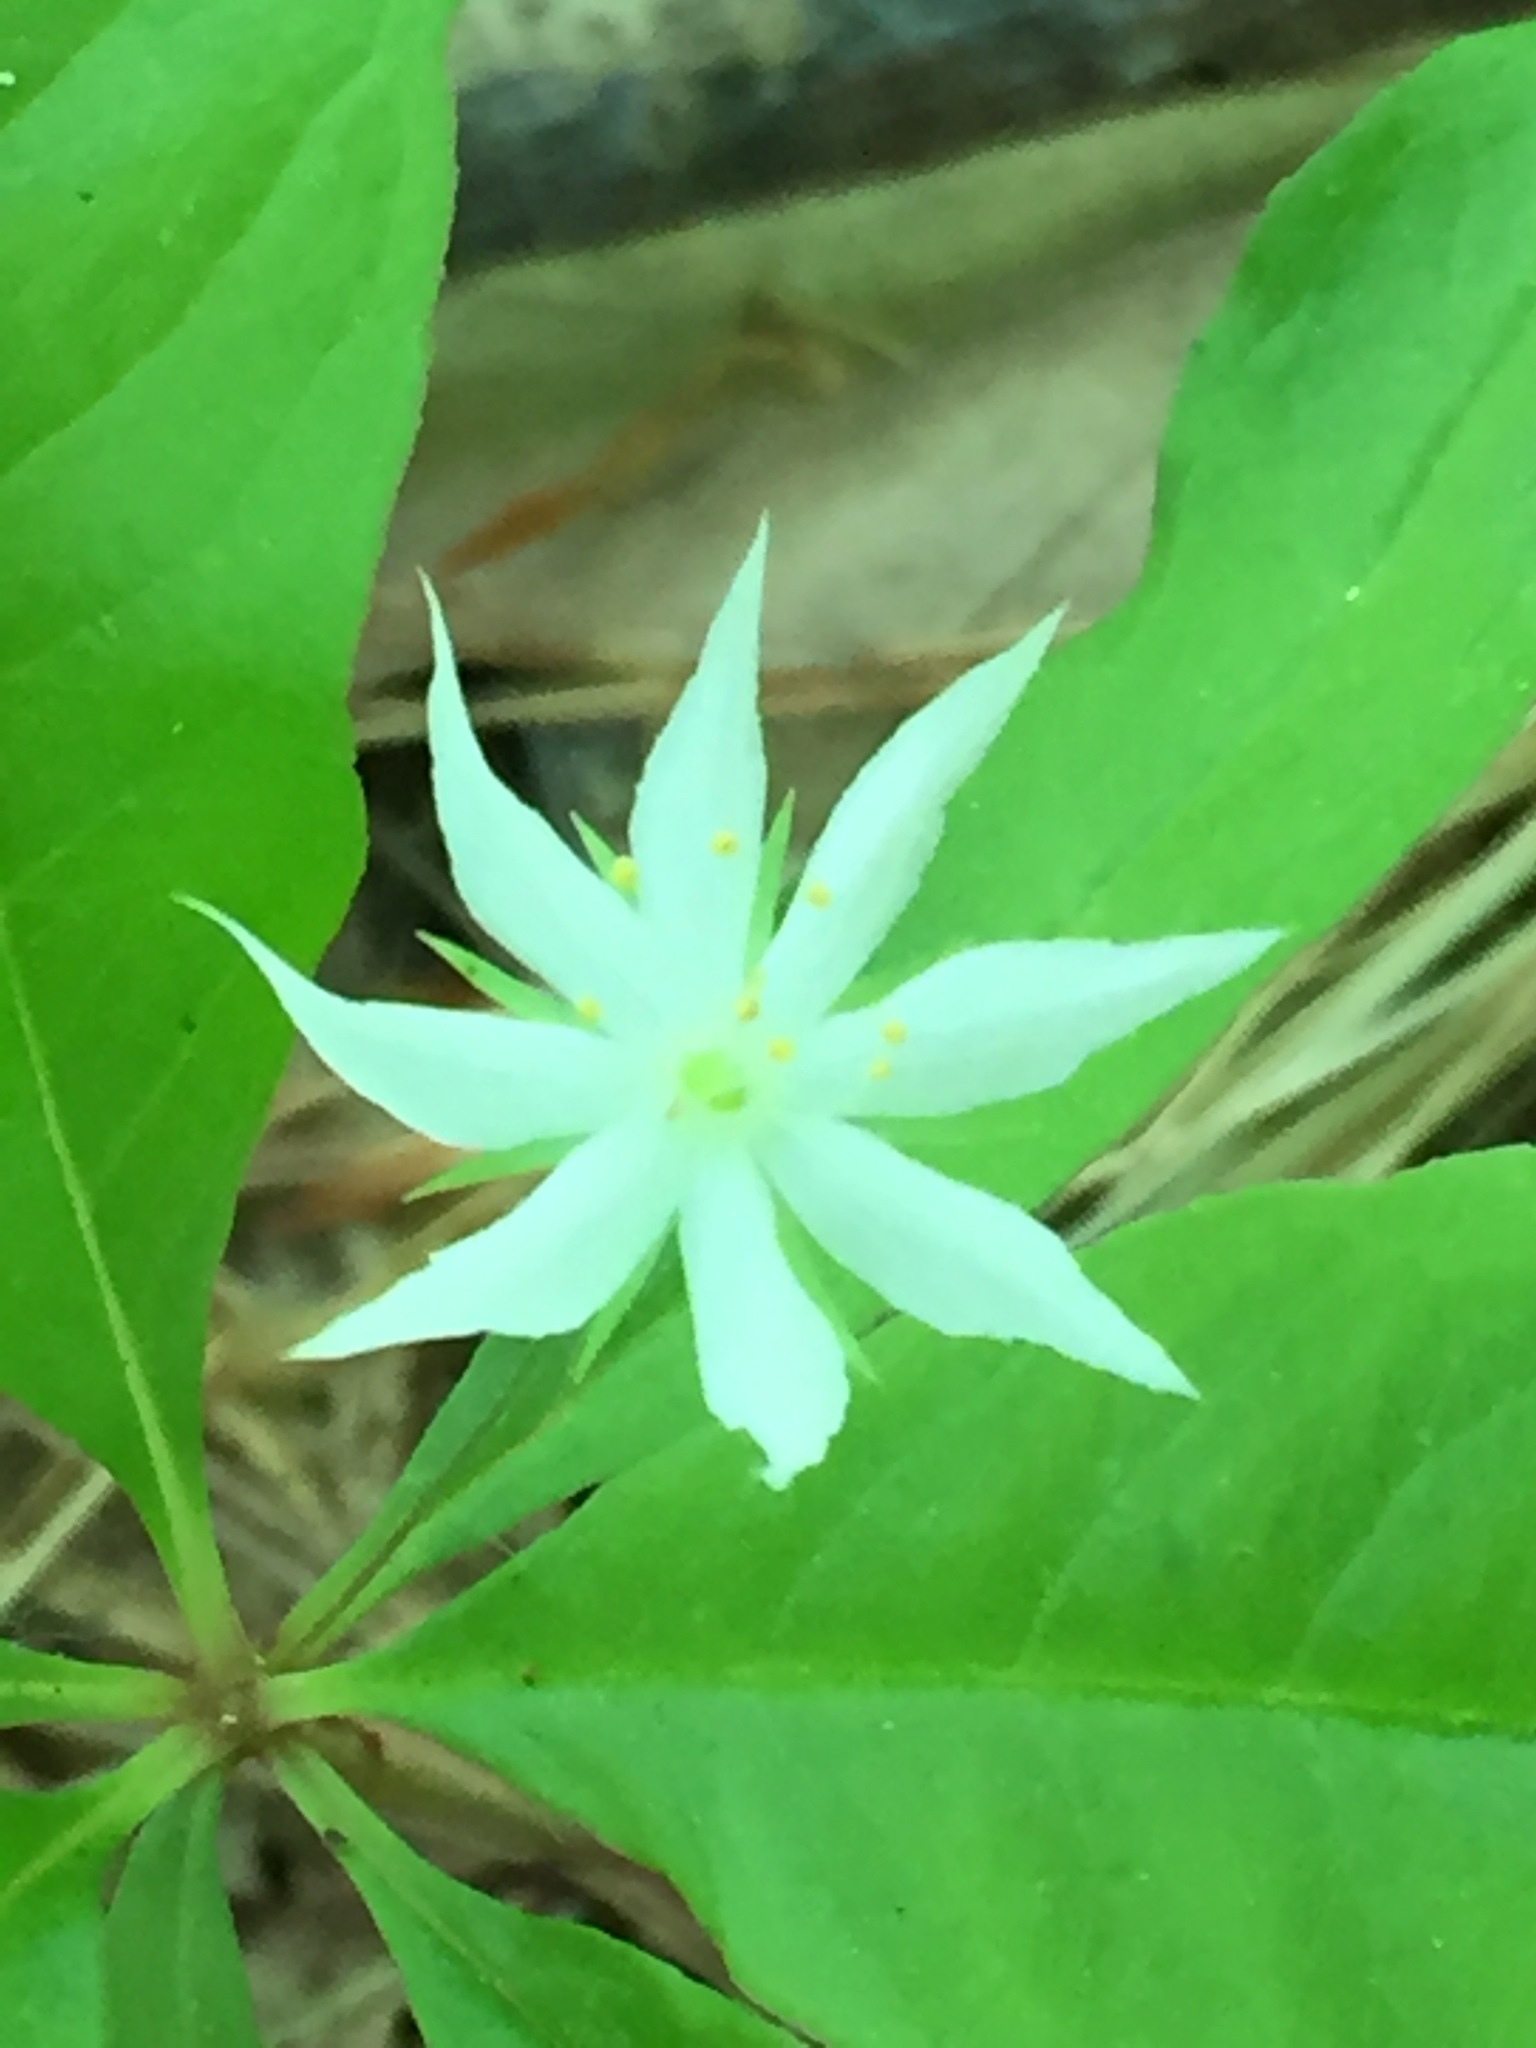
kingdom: Plantae
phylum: Tracheophyta
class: Magnoliopsida
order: Ericales
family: Primulaceae
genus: Lysimachia
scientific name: Lysimachia borealis
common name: American starflower
